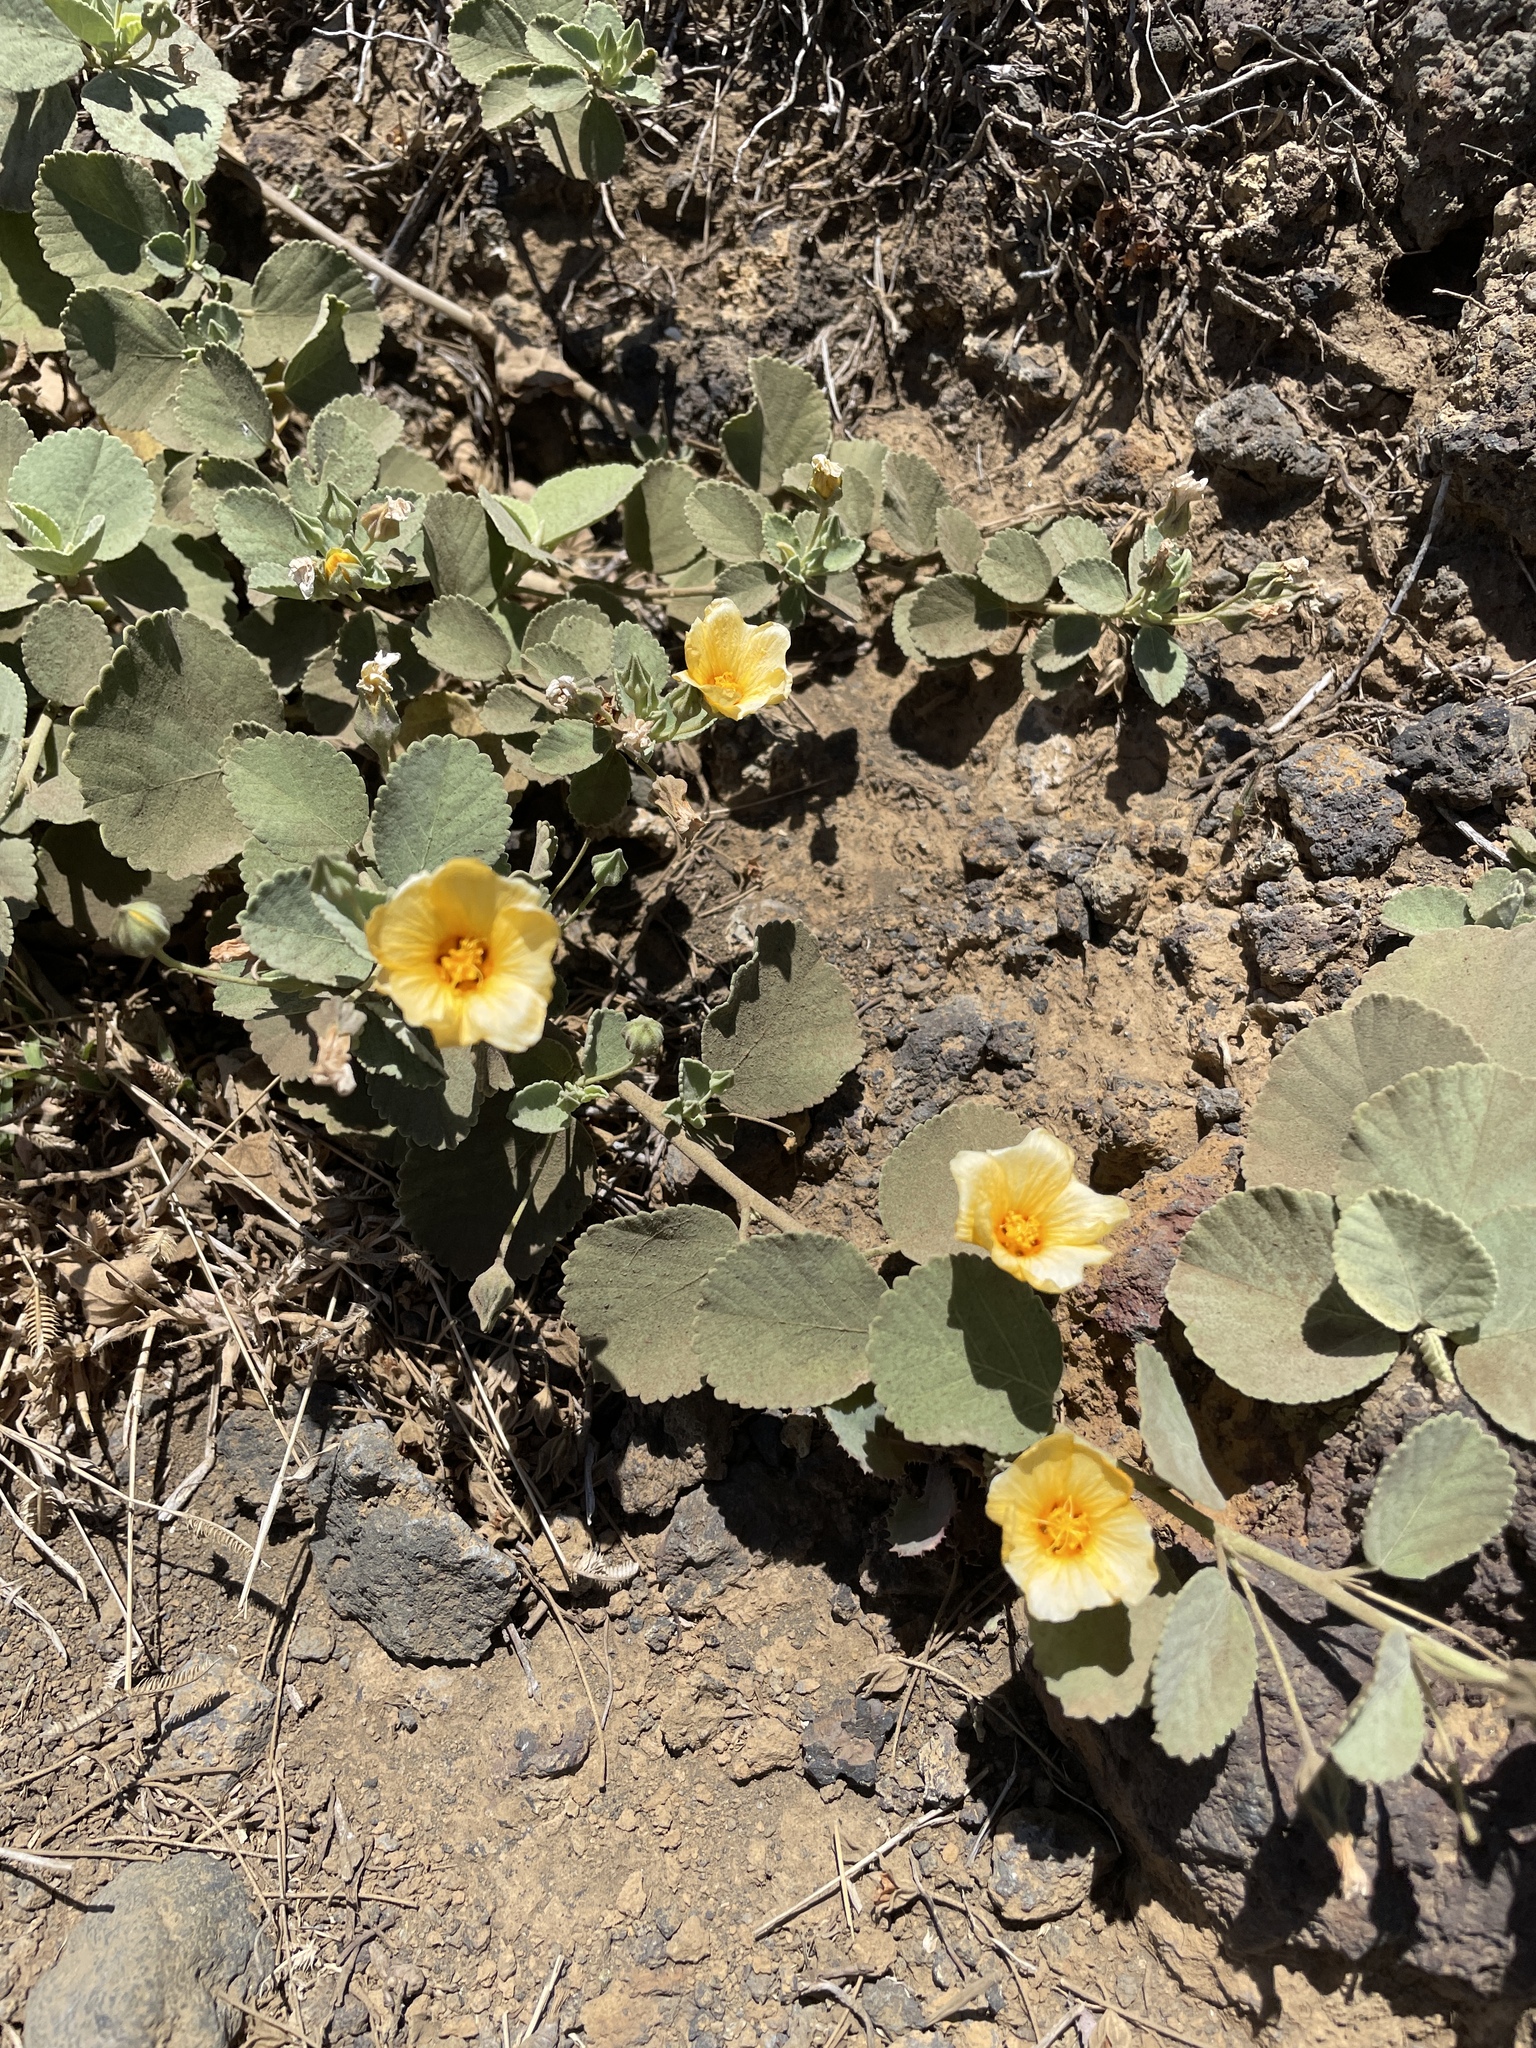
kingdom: Plantae
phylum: Tracheophyta
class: Magnoliopsida
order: Malvales
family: Malvaceae
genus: Sida
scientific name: Sida fallax
